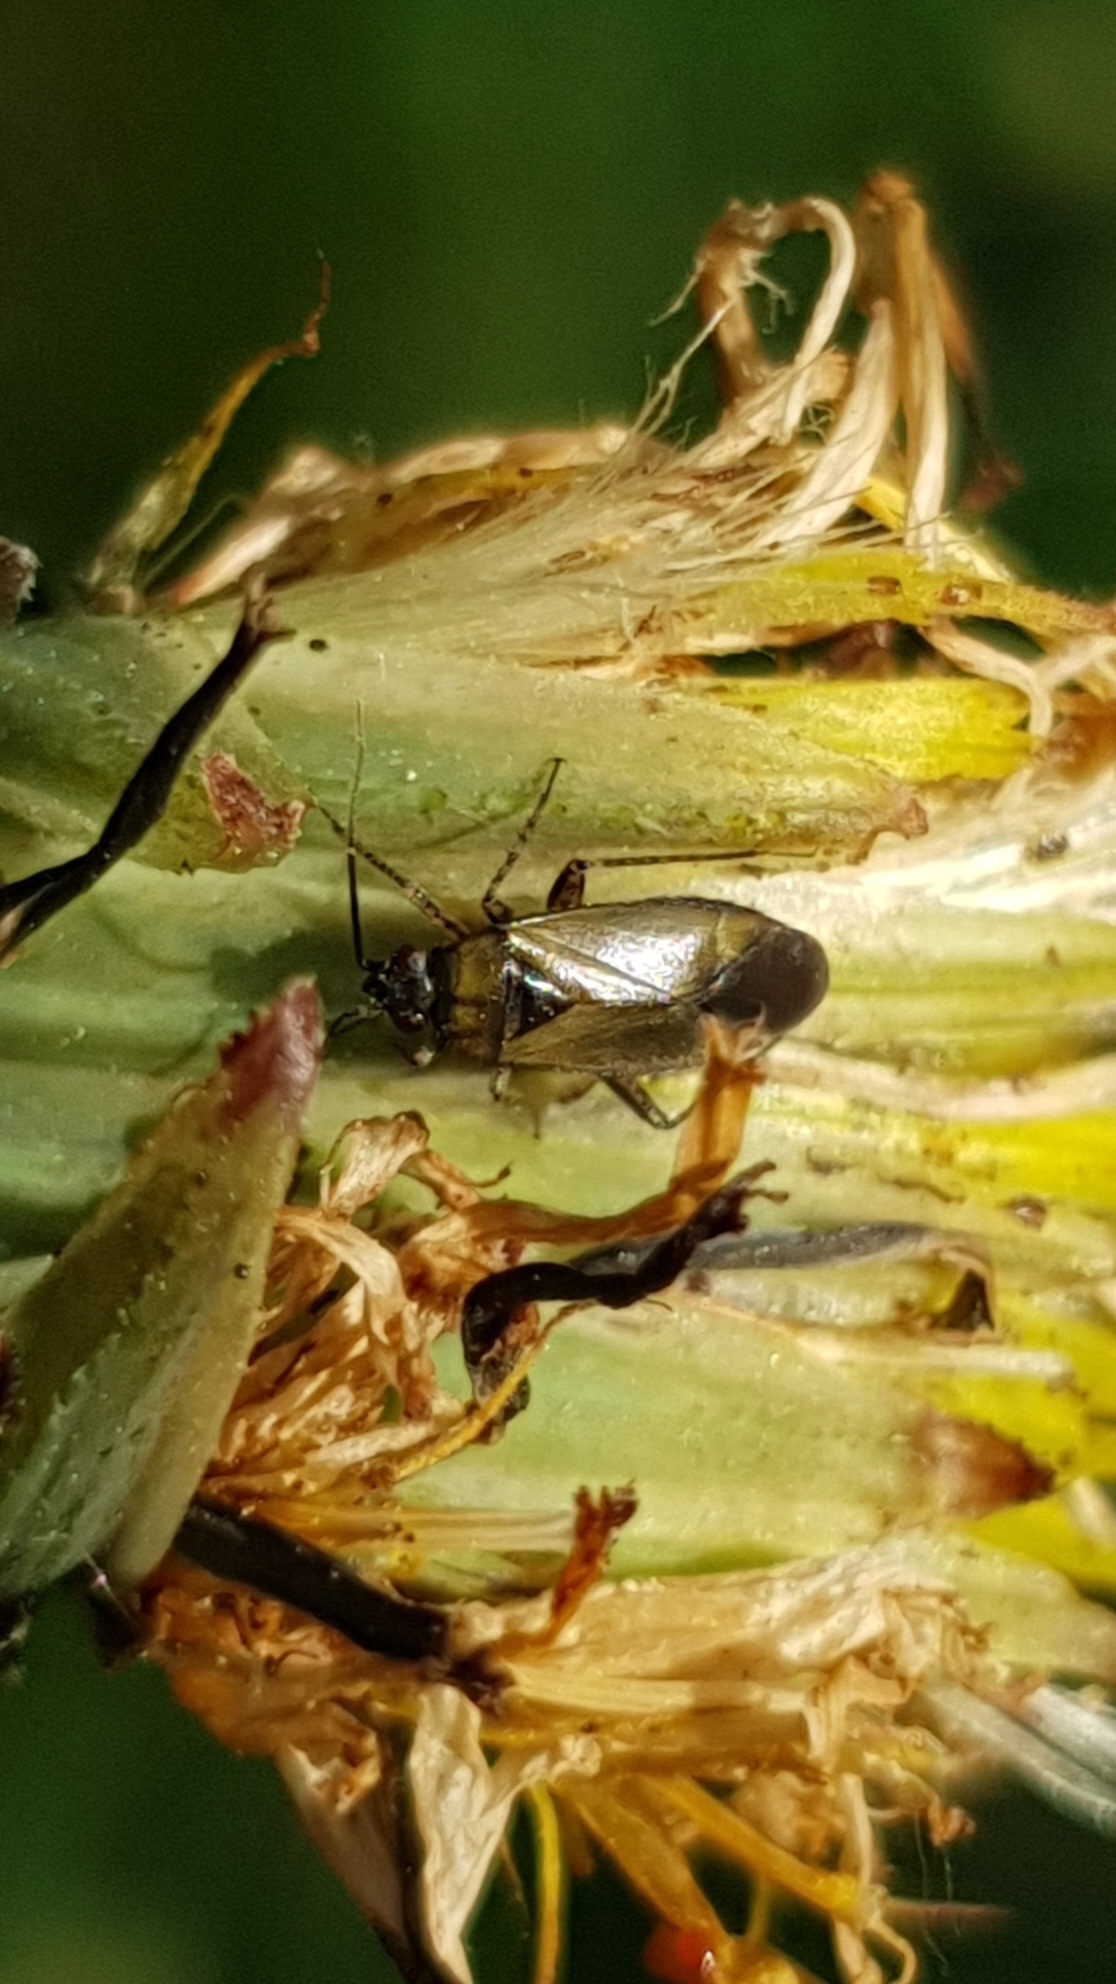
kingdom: Animalia
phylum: Arthropoda
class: Insecta
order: Hemiptera
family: Miridae
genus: Plagiognathus
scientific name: Plagiognathus arbustorum
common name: Plant bug
